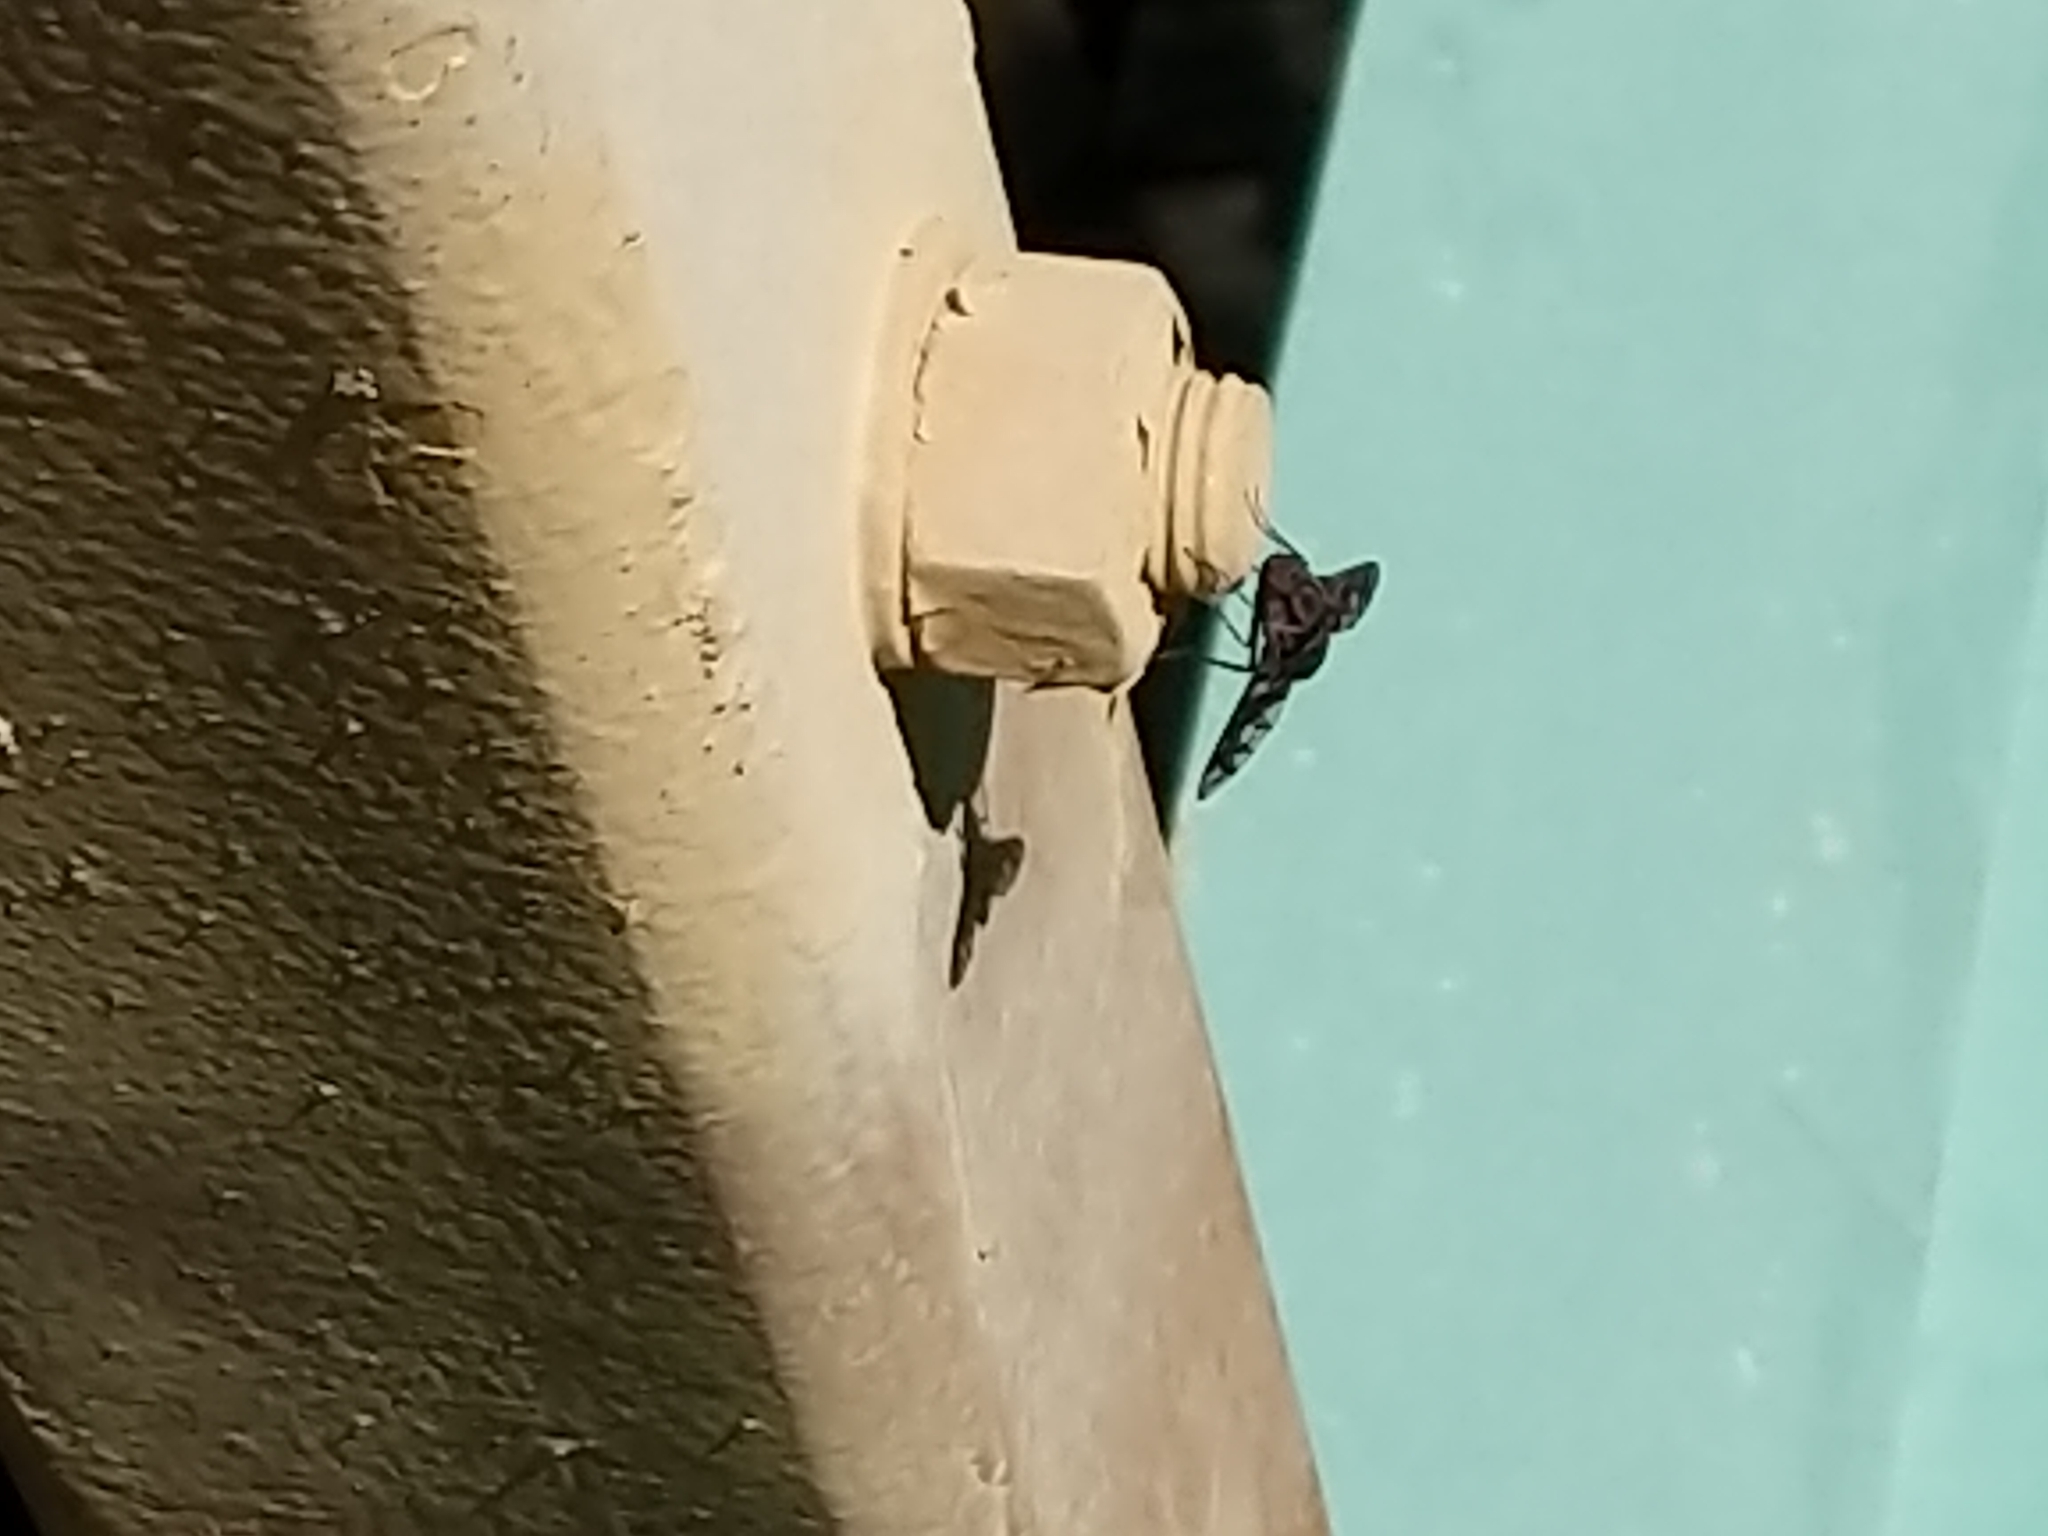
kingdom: Animalia
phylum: Arthropoda
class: Insecta
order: Diptera
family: Bombyliidae
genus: Xenox
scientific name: Xenox tigrinus
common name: Tiger bee fly
